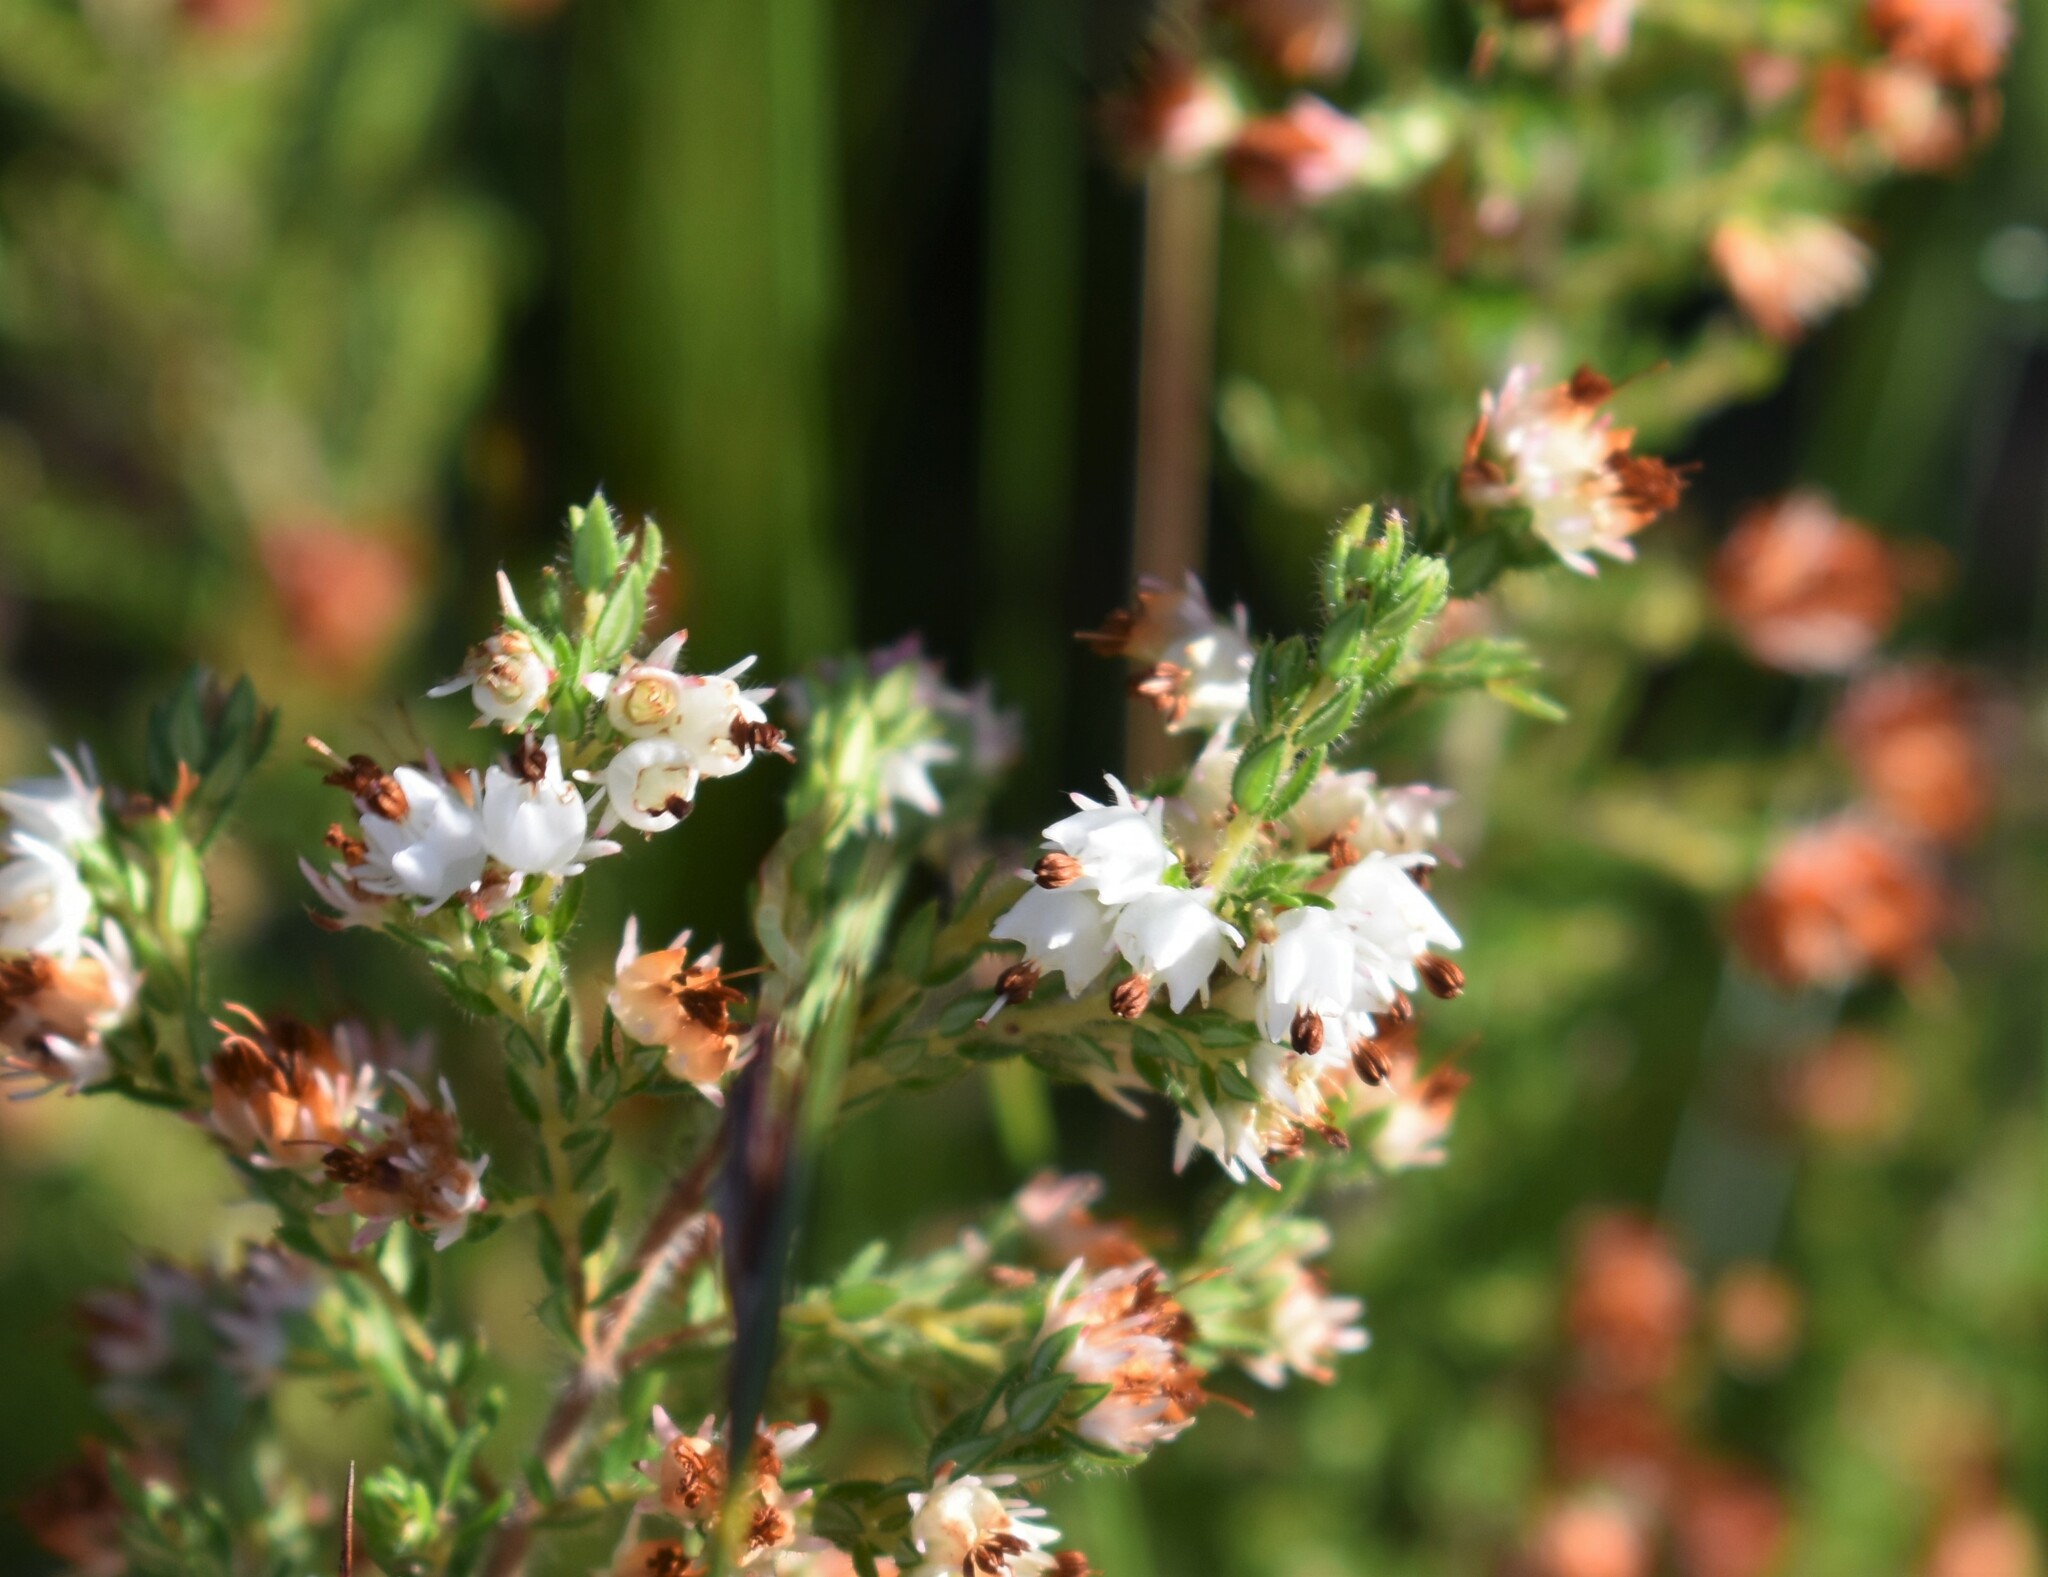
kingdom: Plantae
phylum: Tracheophyta
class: Magnoliopsida
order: Ericales
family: Ericaceae
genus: Erica
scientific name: Erica lehmannii
